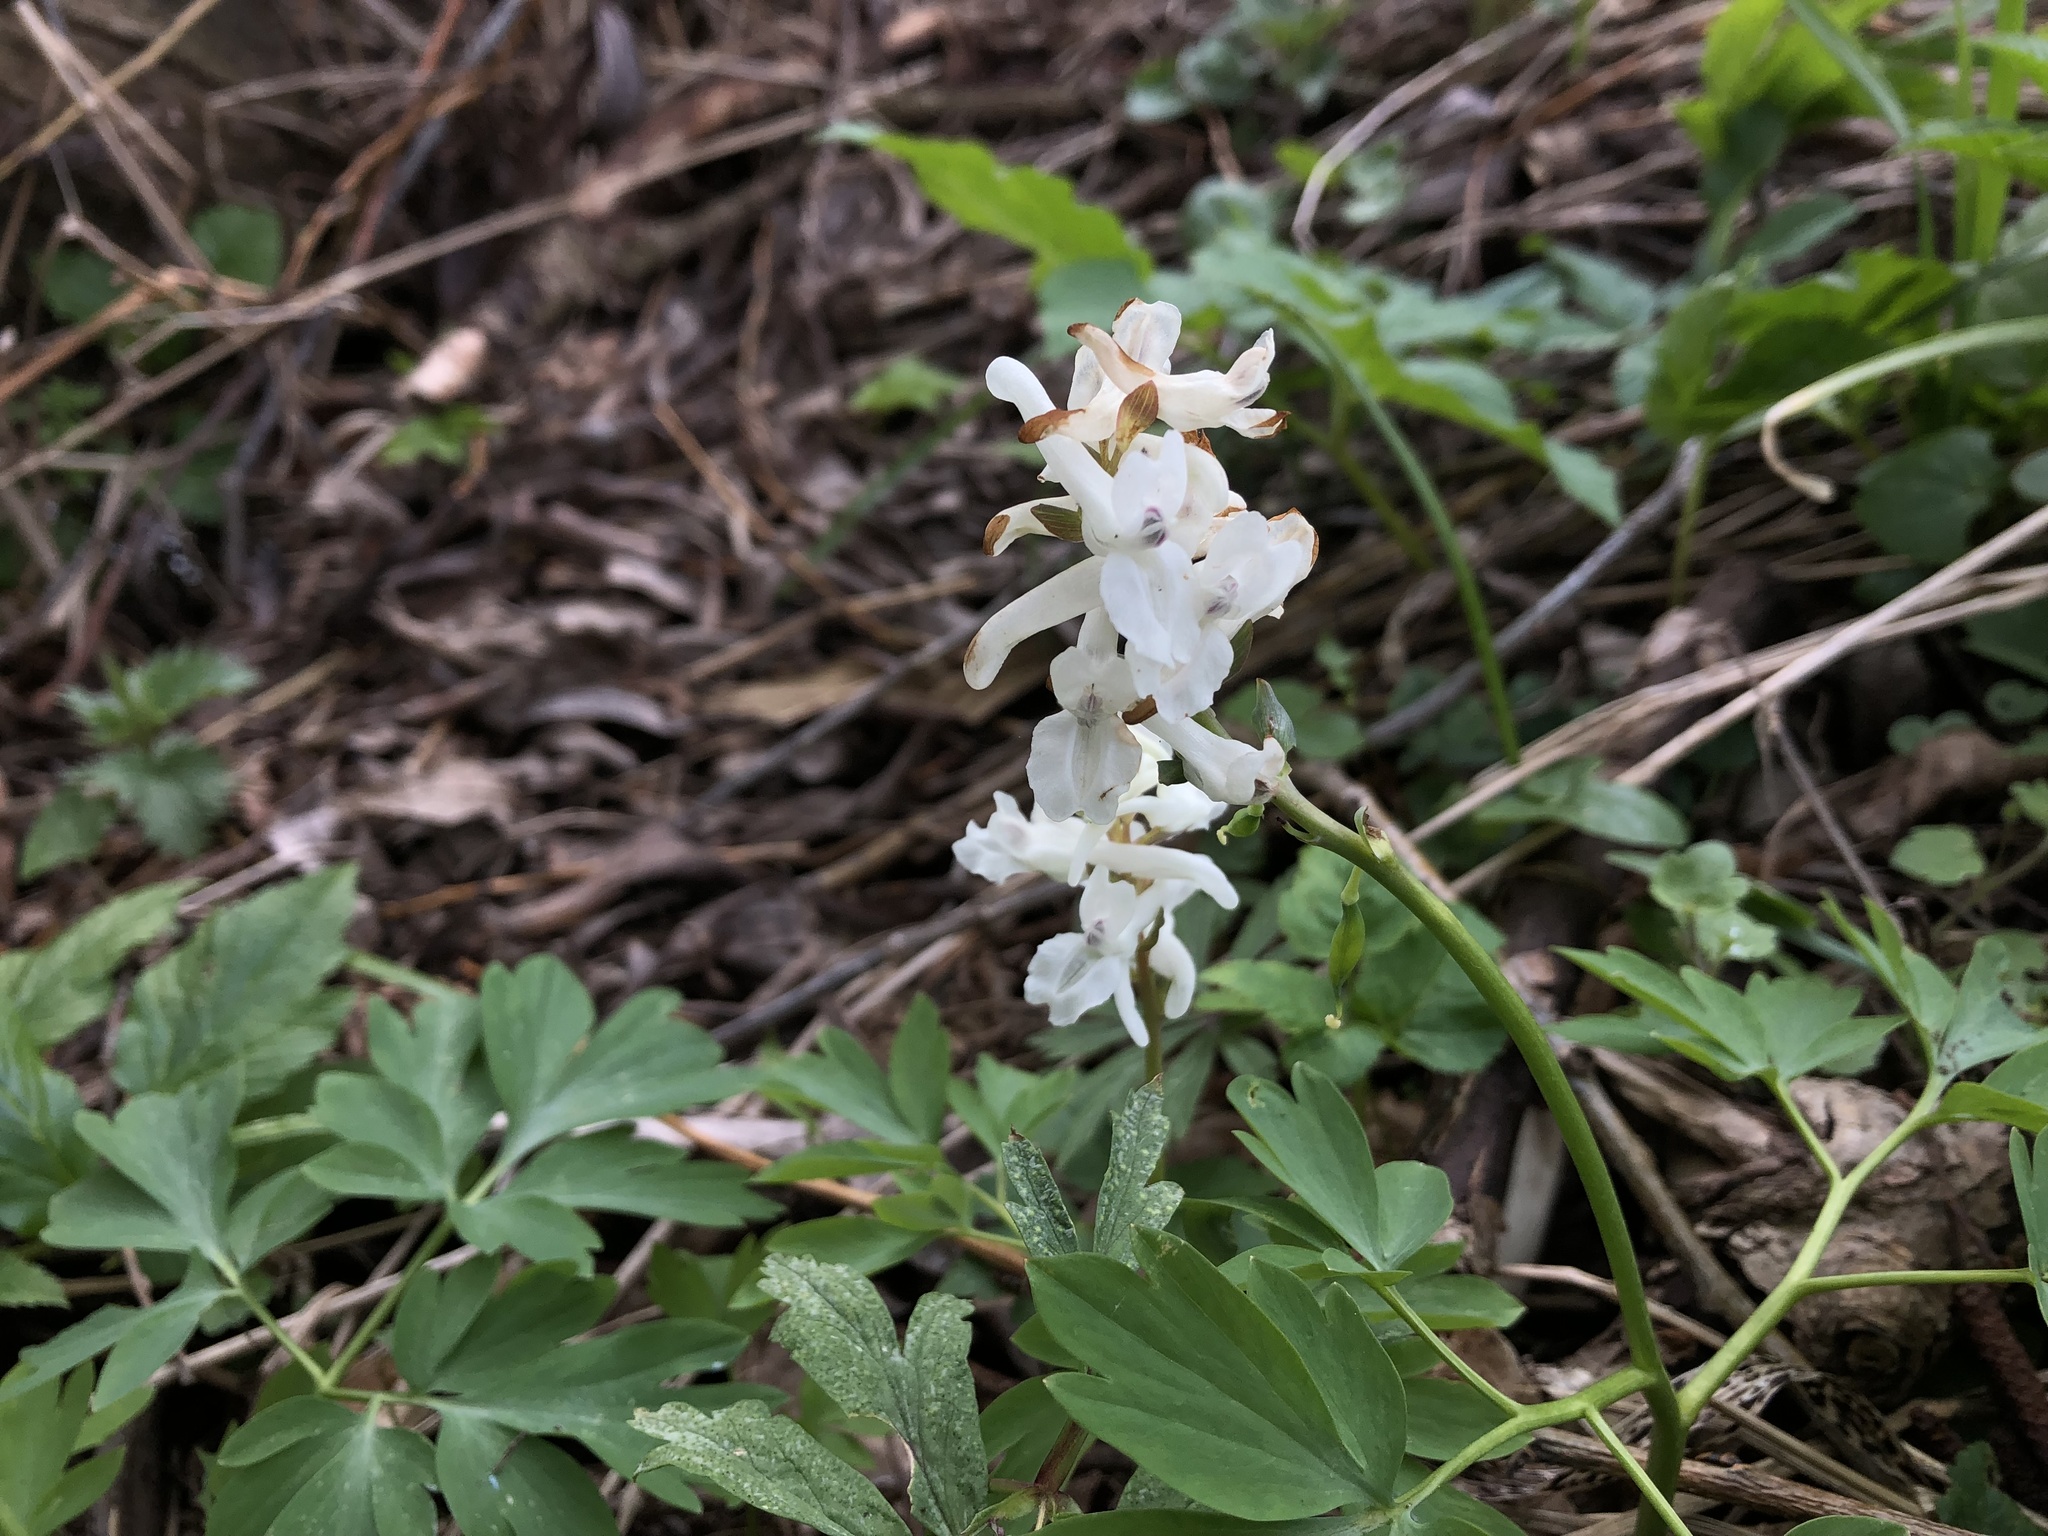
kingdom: Plantae
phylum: Tracheophyta
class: Magnoliopsida
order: Ranunculales
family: Papaveraceae
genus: Corydalis
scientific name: Corydalis cava
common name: Hollowroot
